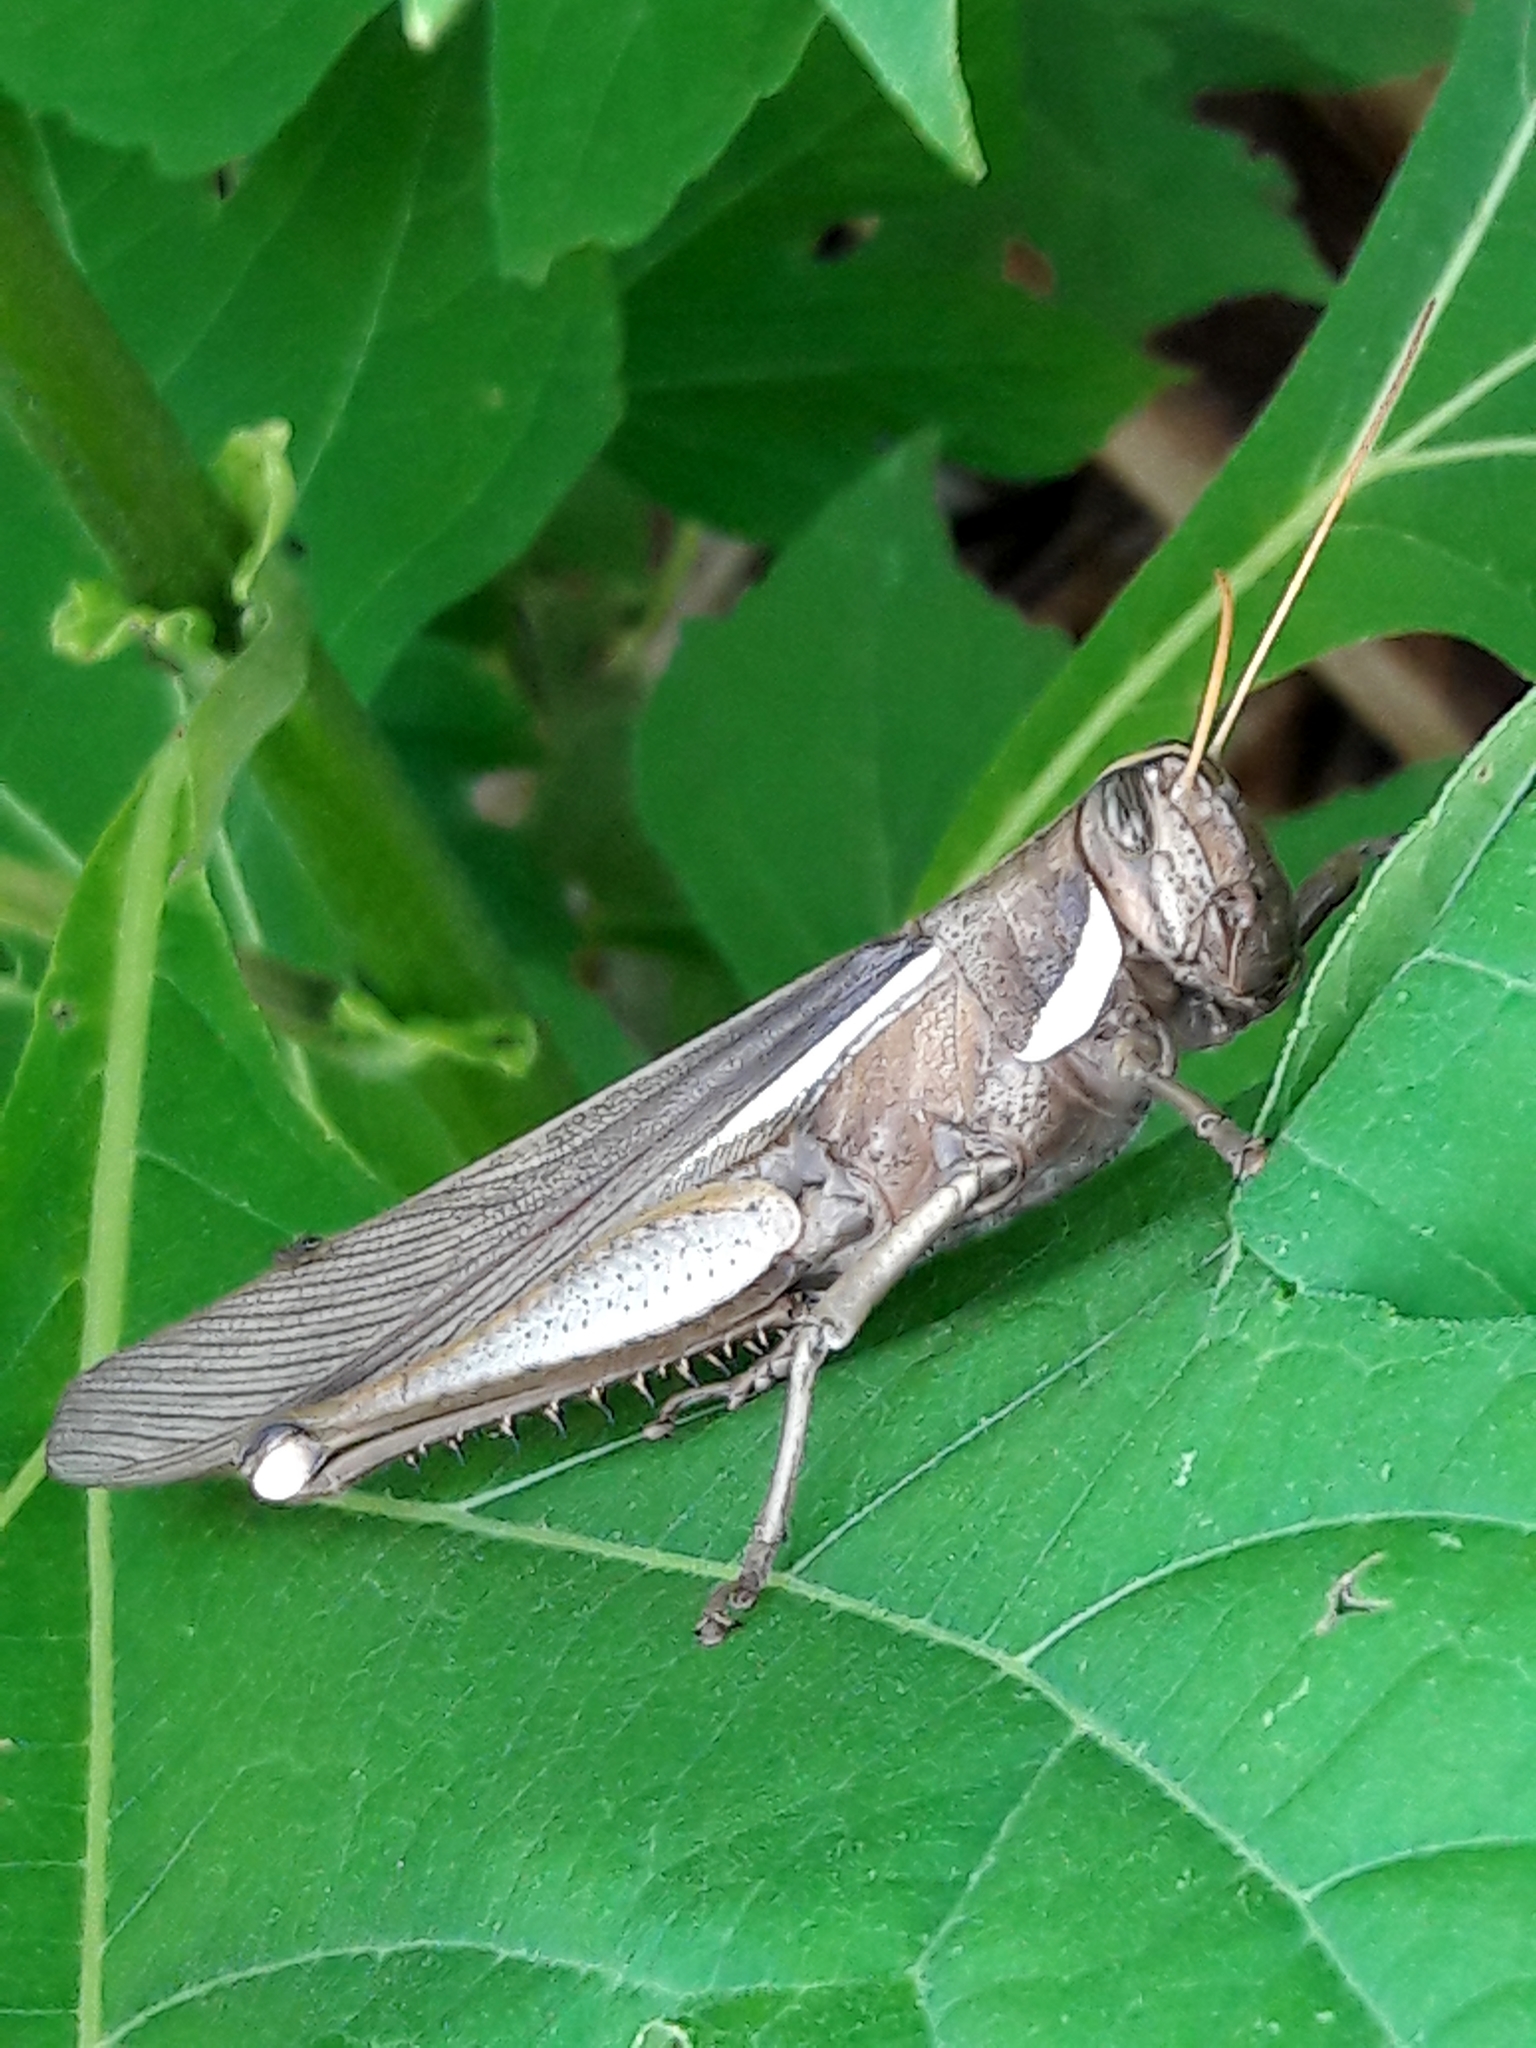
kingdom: Animalia
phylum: Arthropoda
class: Insecta
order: Orthoptera
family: Acrididae
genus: Schistocerca
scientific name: Schistocerca flavofasciata
